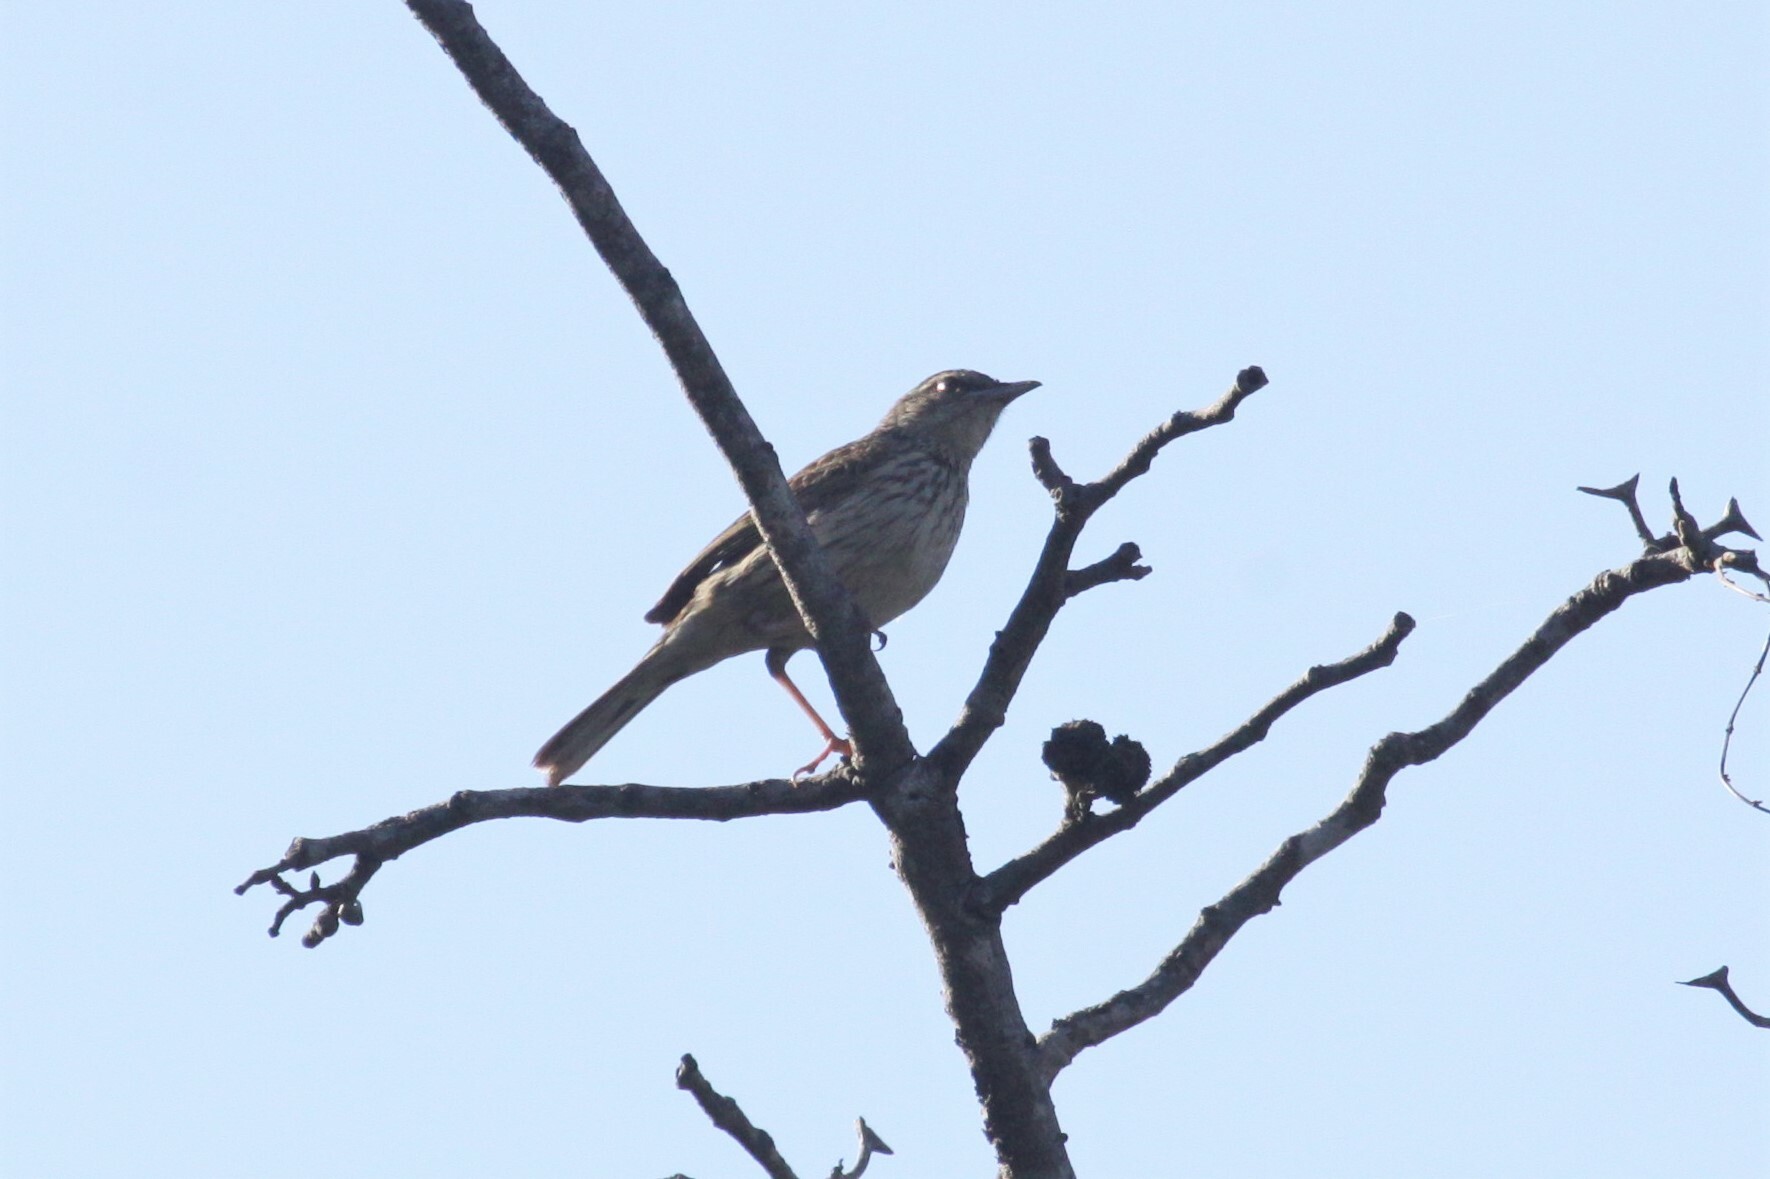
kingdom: Animalia
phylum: Chordata
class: Aves
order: Passeriformes
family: Motacillidae
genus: Anthus
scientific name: Anthus lineiventris
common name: Striped pipit
